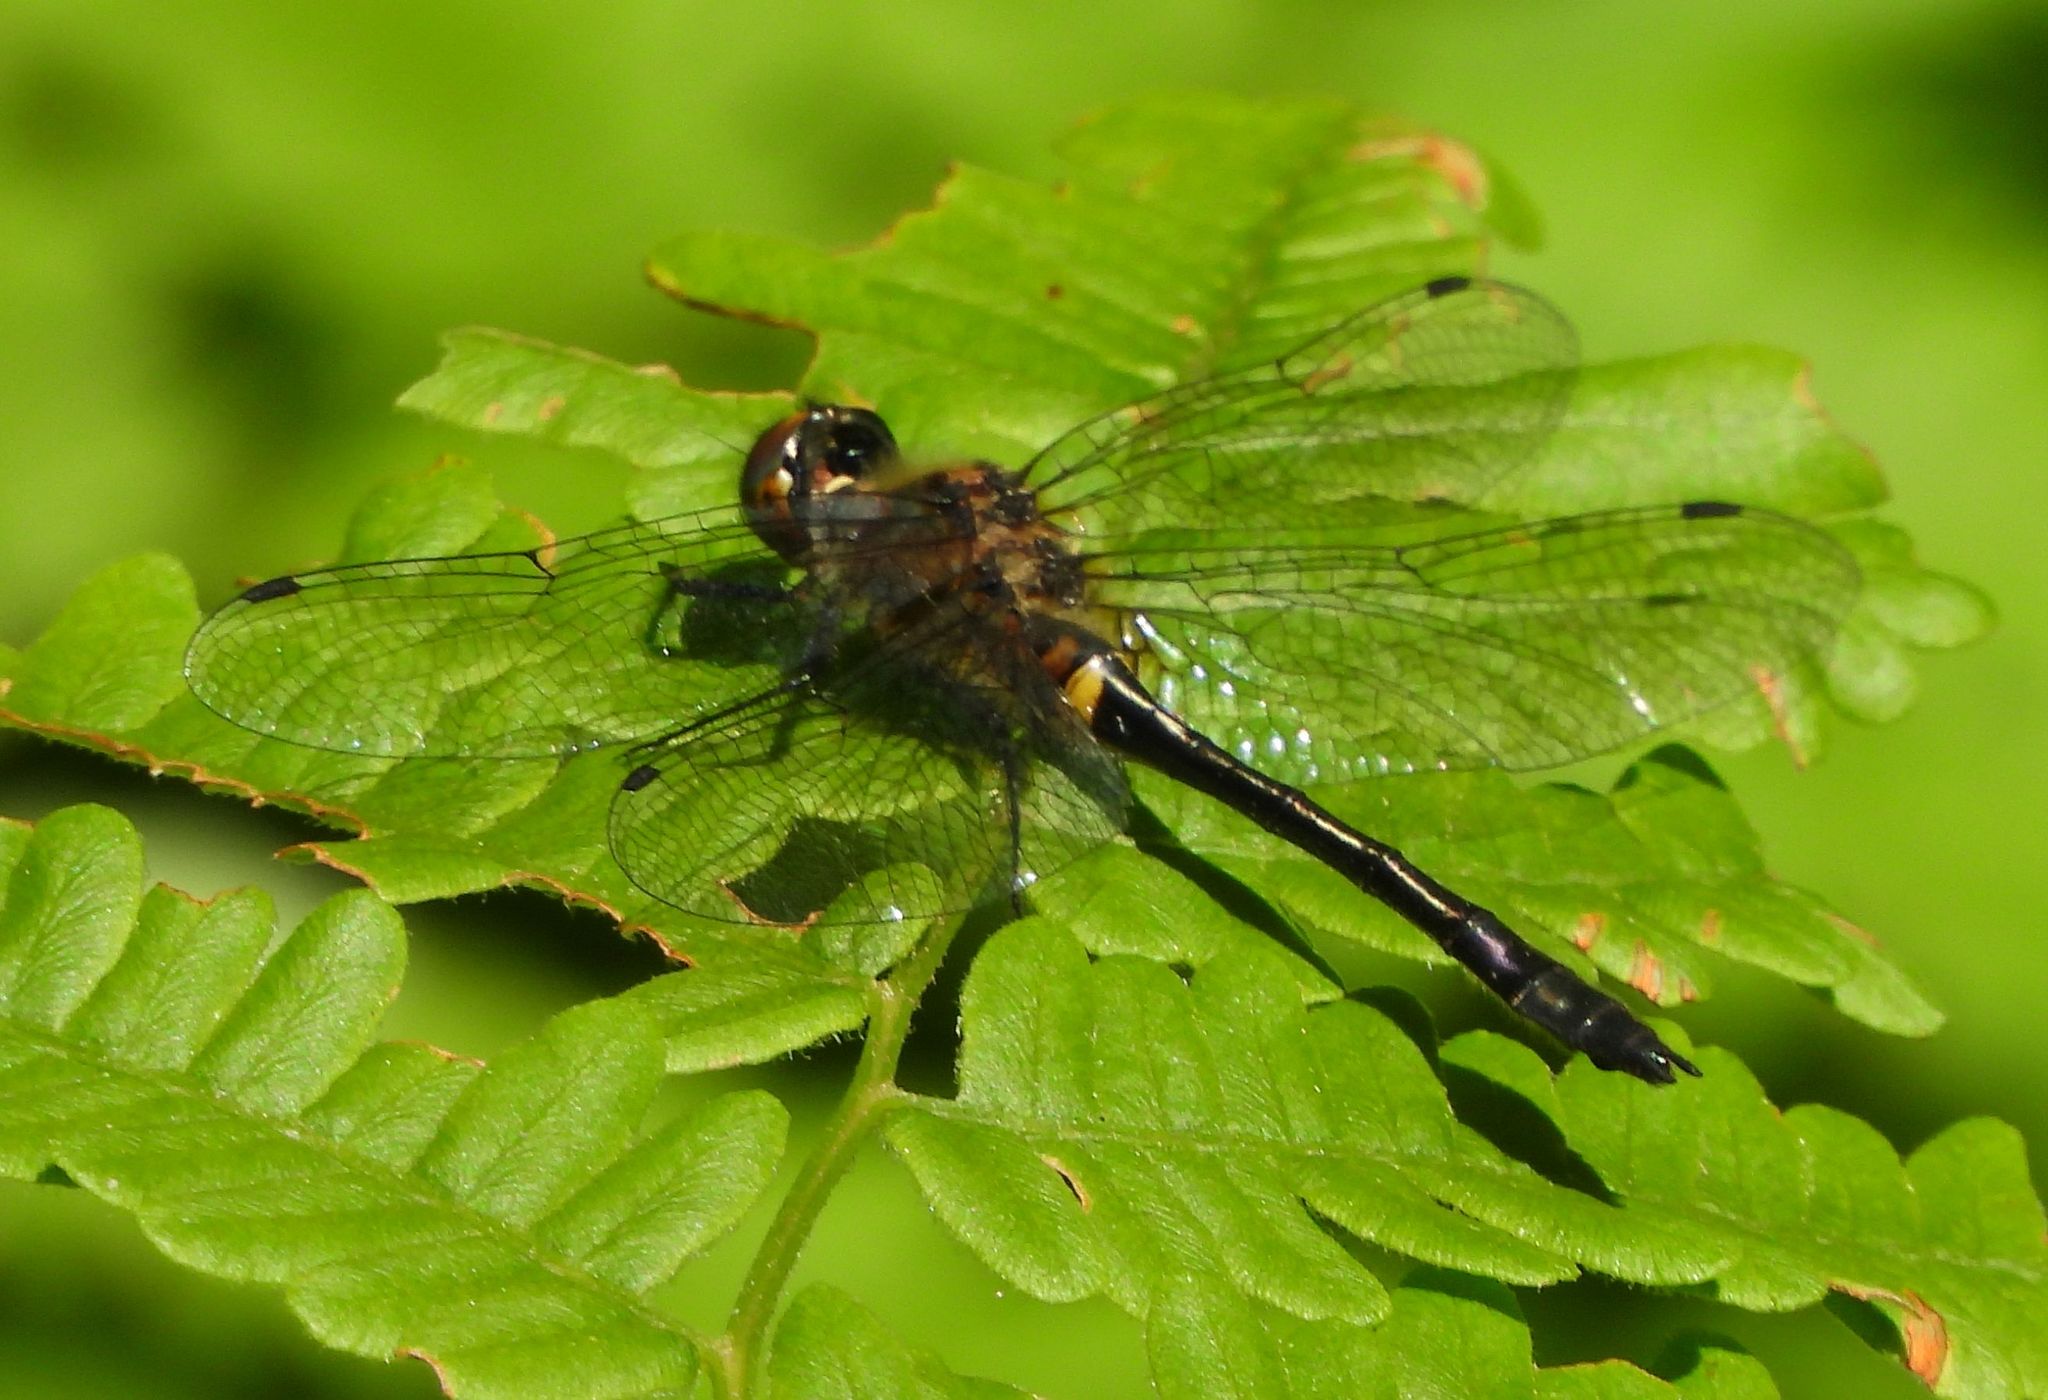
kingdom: Animalia
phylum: Arthropoda
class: Insecta
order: Odonata
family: Corduliidae
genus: Dorocordulia
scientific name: Dorocordulia libera
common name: Racket-tailed emerald
